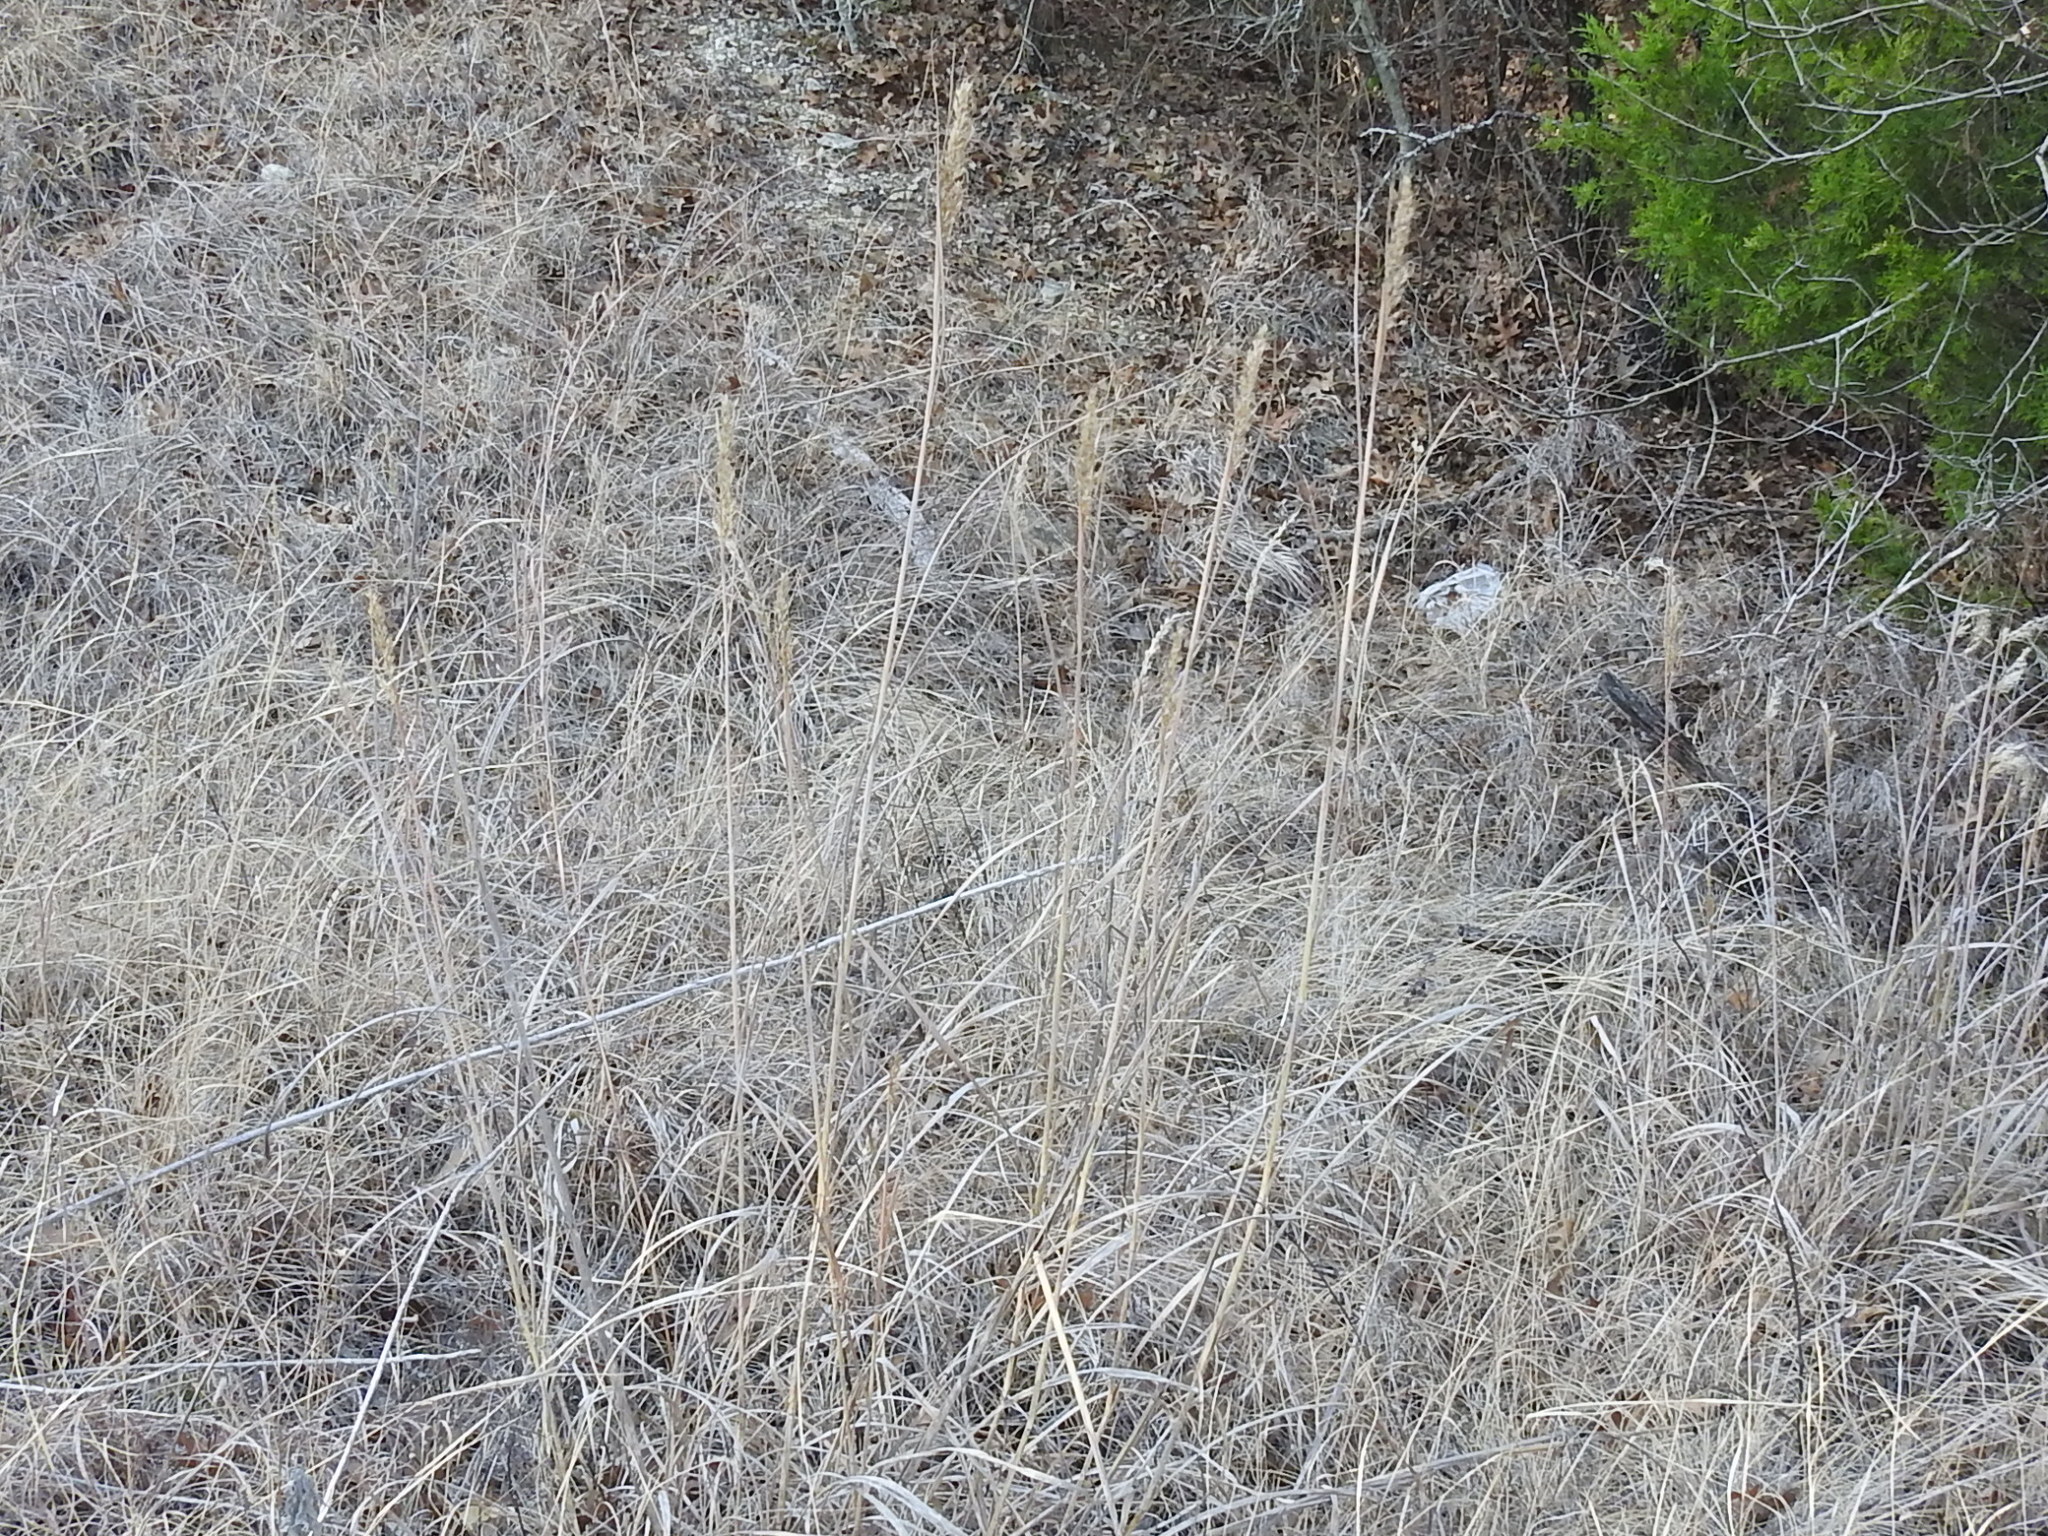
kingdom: Plantae
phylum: Tracheophyta
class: Liliopsida
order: Poales
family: Poaceae
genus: Sorghastrum
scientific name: Sorghastrum nutans
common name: Indian grass
